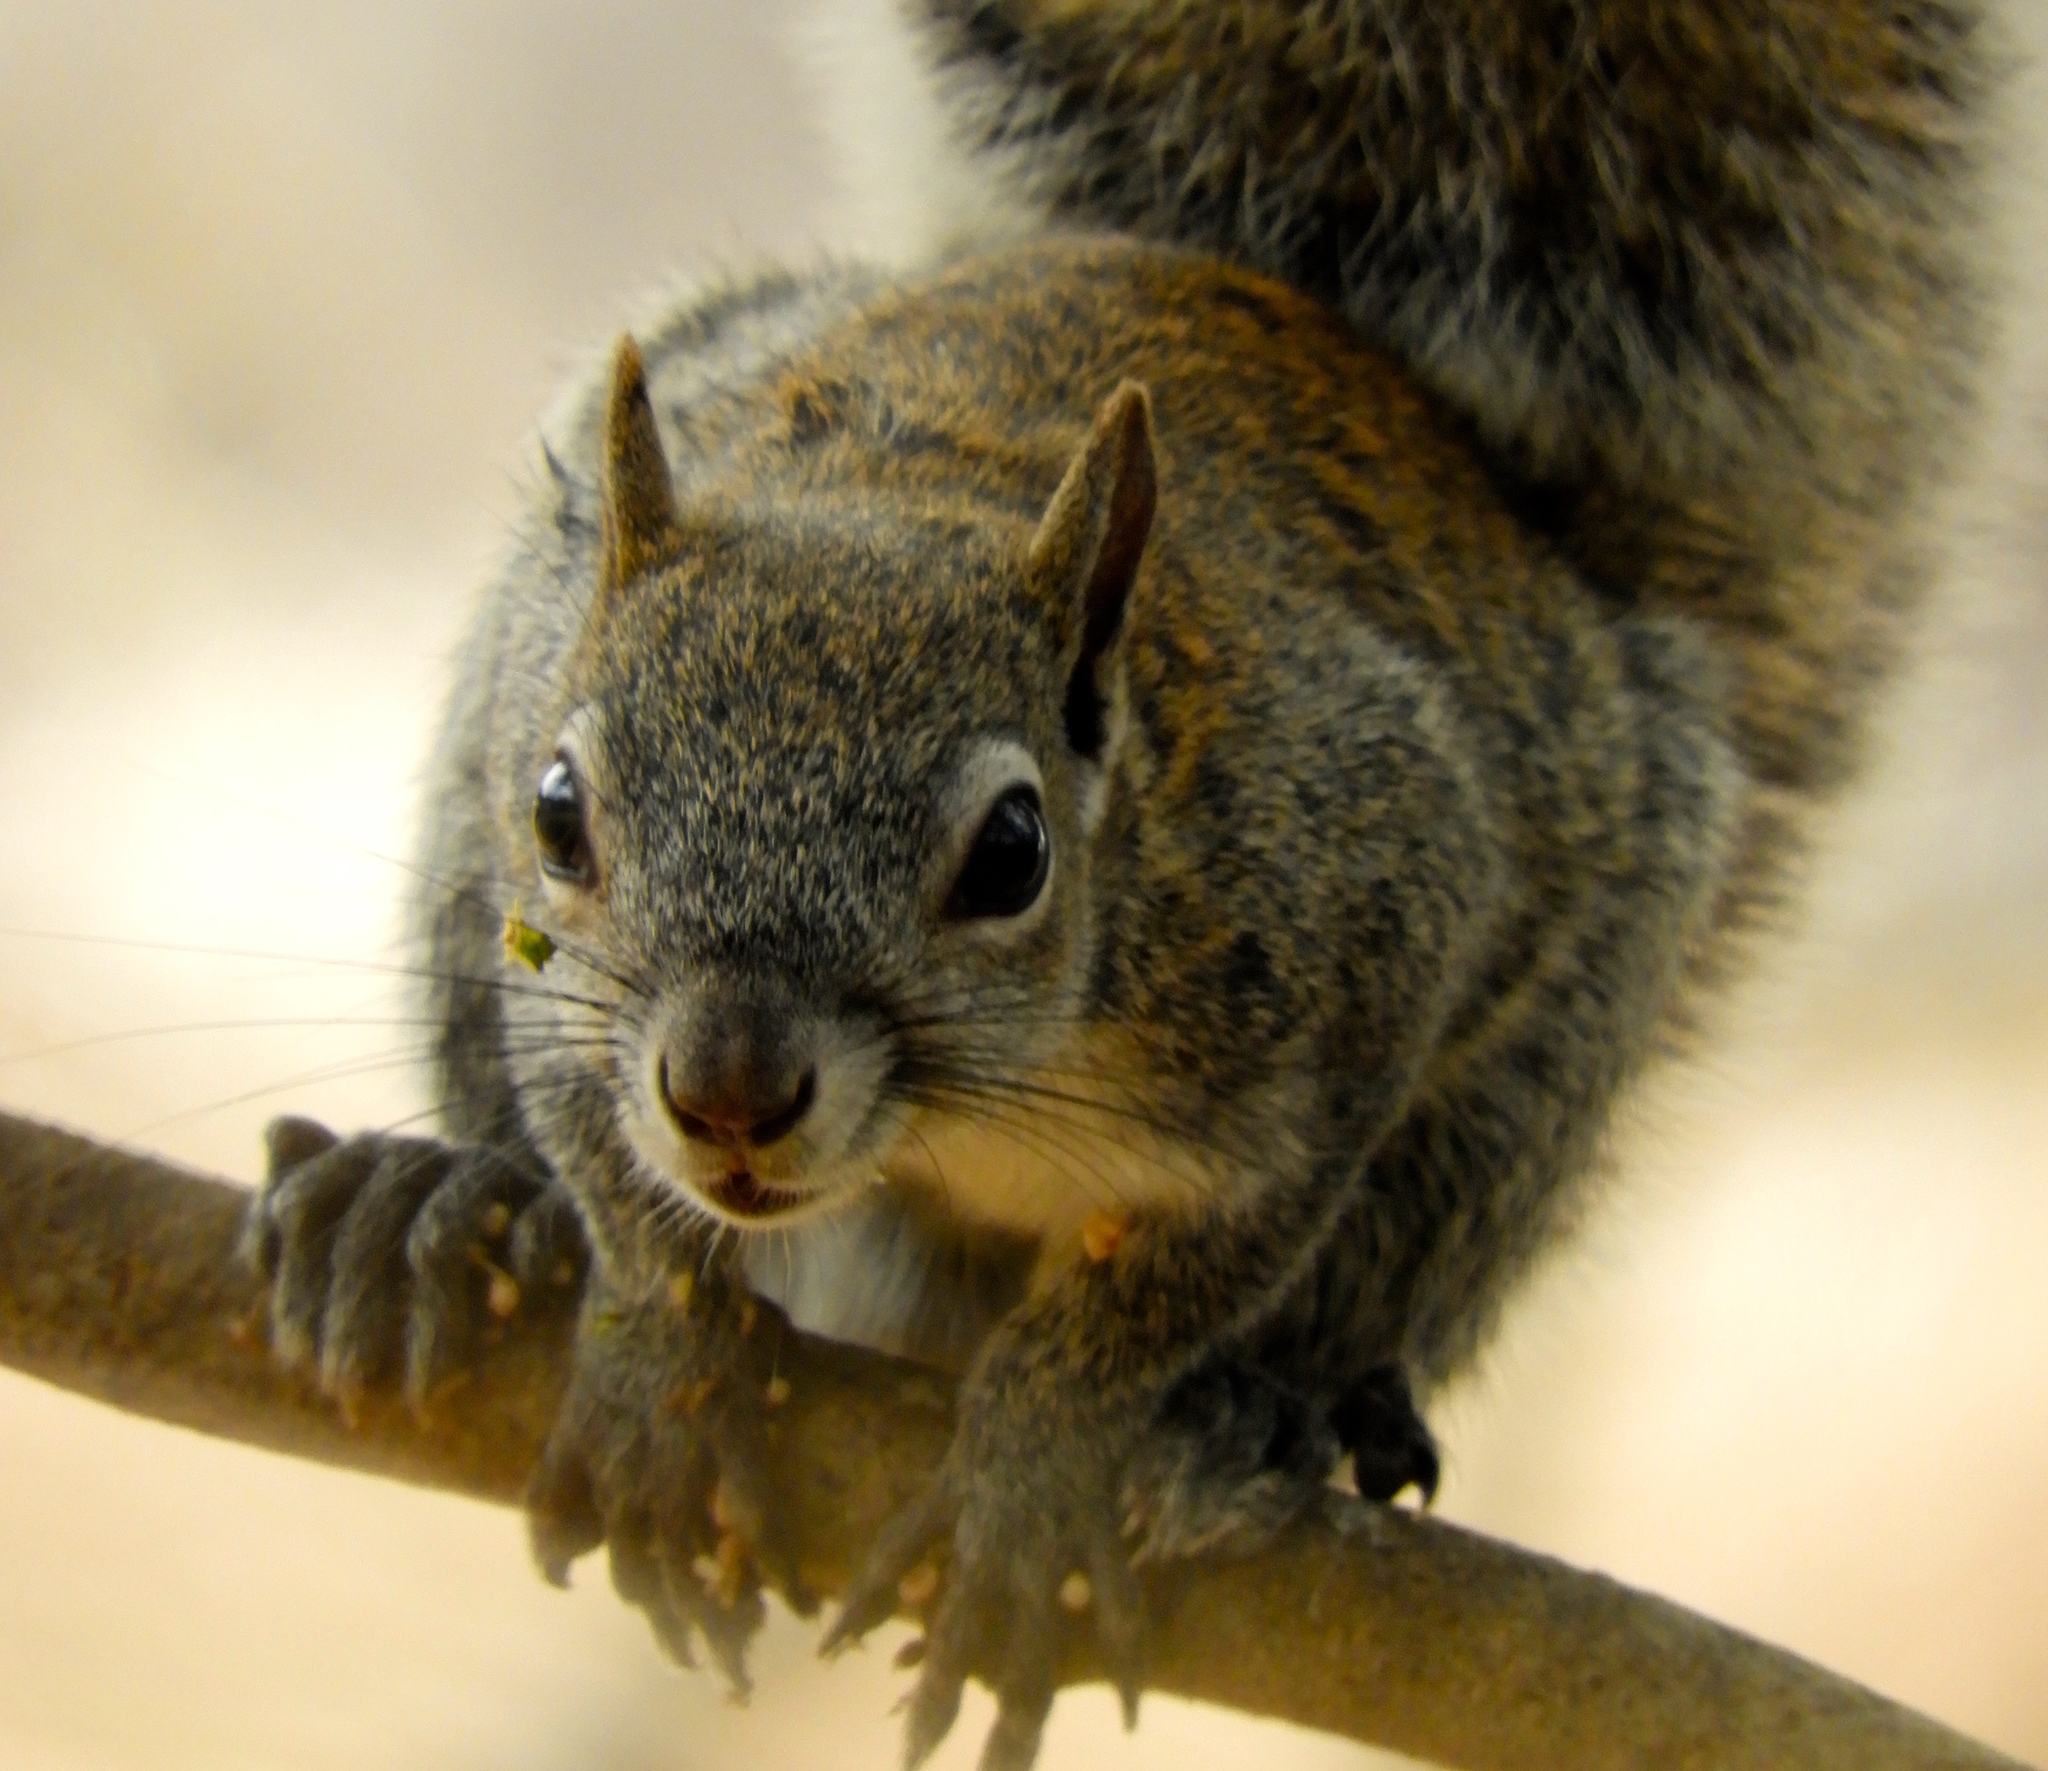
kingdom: Animalia
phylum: Chordata
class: Mammalia
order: Rodentia
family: Sciuridae
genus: Sciurus
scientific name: Sciurus colliaei
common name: Collie's squirrel
